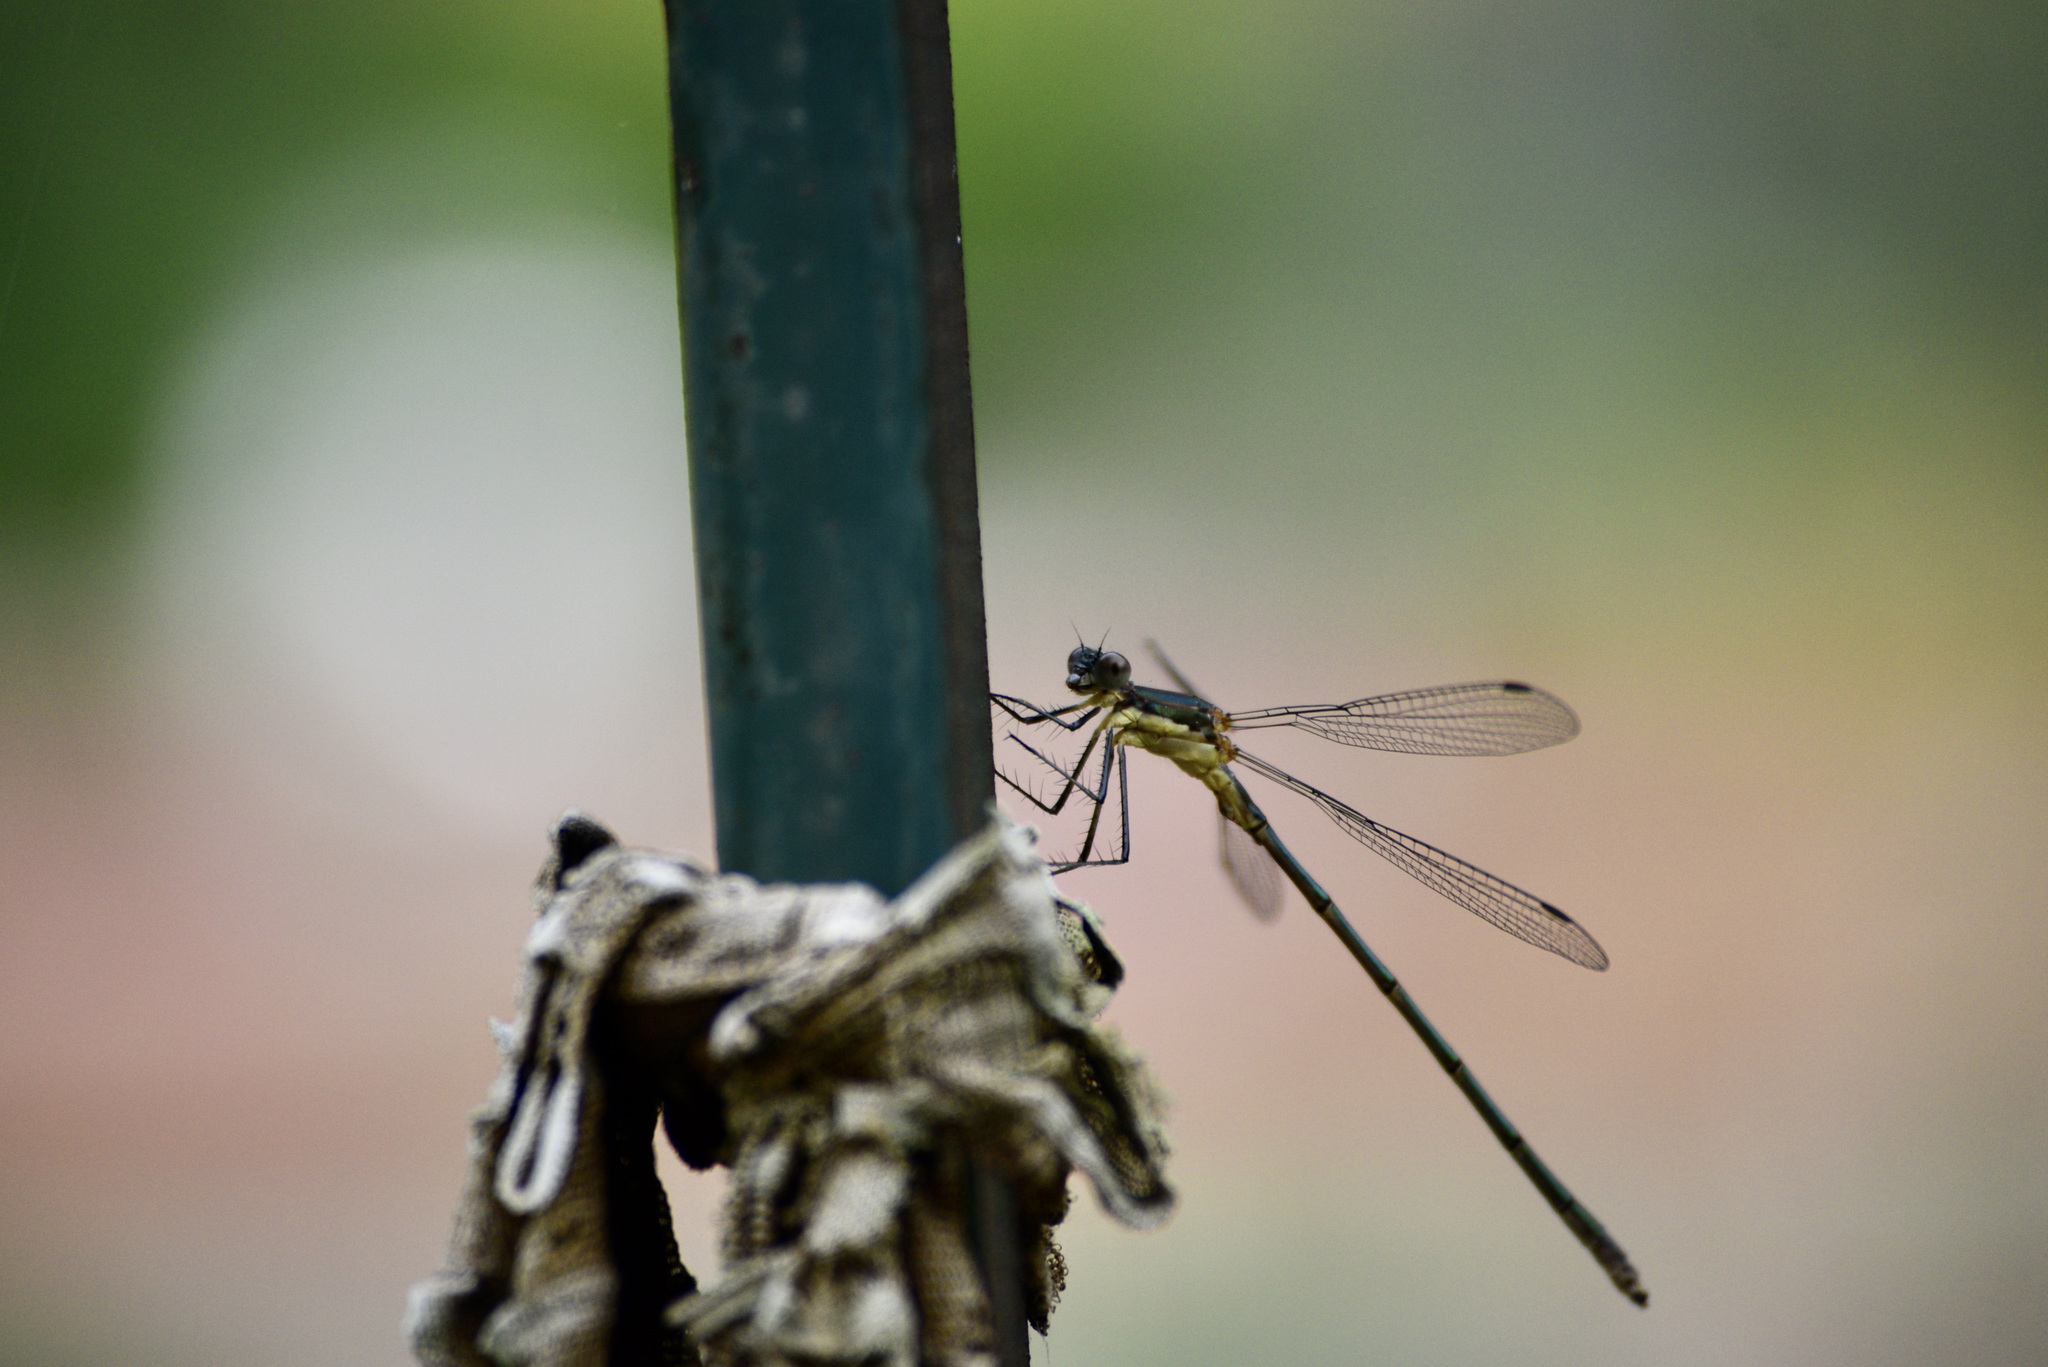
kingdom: Animalia
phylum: Arthropoda
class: Insecta
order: Odonata
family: Lestidae
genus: Lestes
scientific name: Lestes inaequalis
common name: Elegant spreadwing
